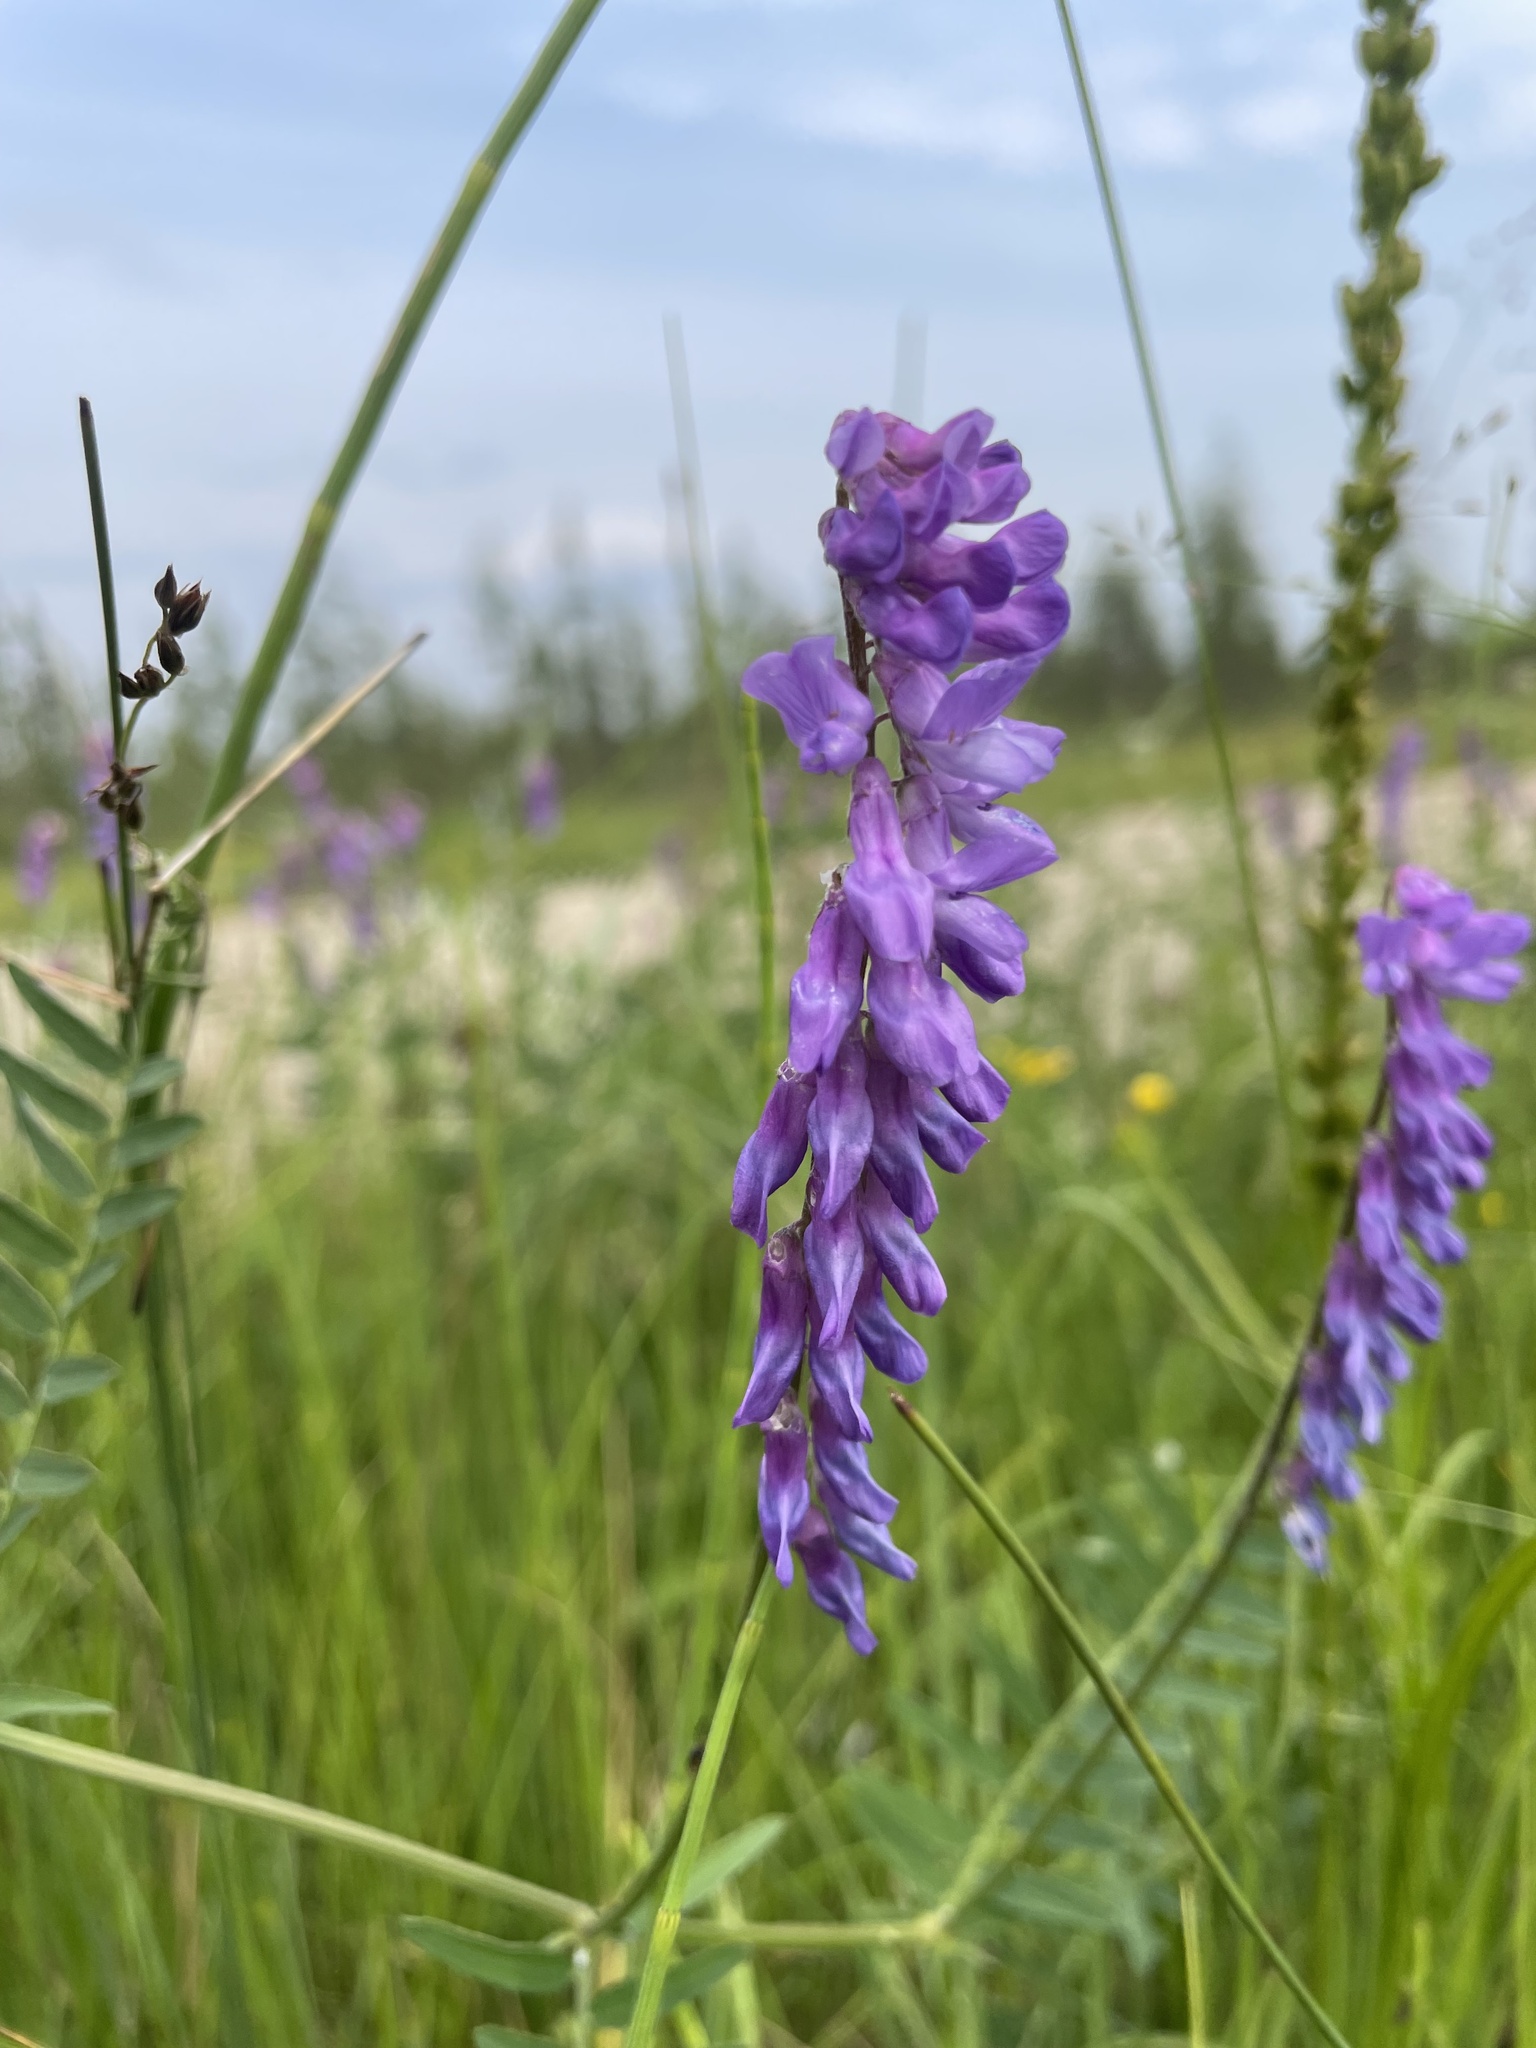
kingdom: Plantae
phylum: Tracheophyta
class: Magnoliopsida
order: Fabales
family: Fabaceae
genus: Vicia
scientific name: Vicia cracca
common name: Bird vetch
